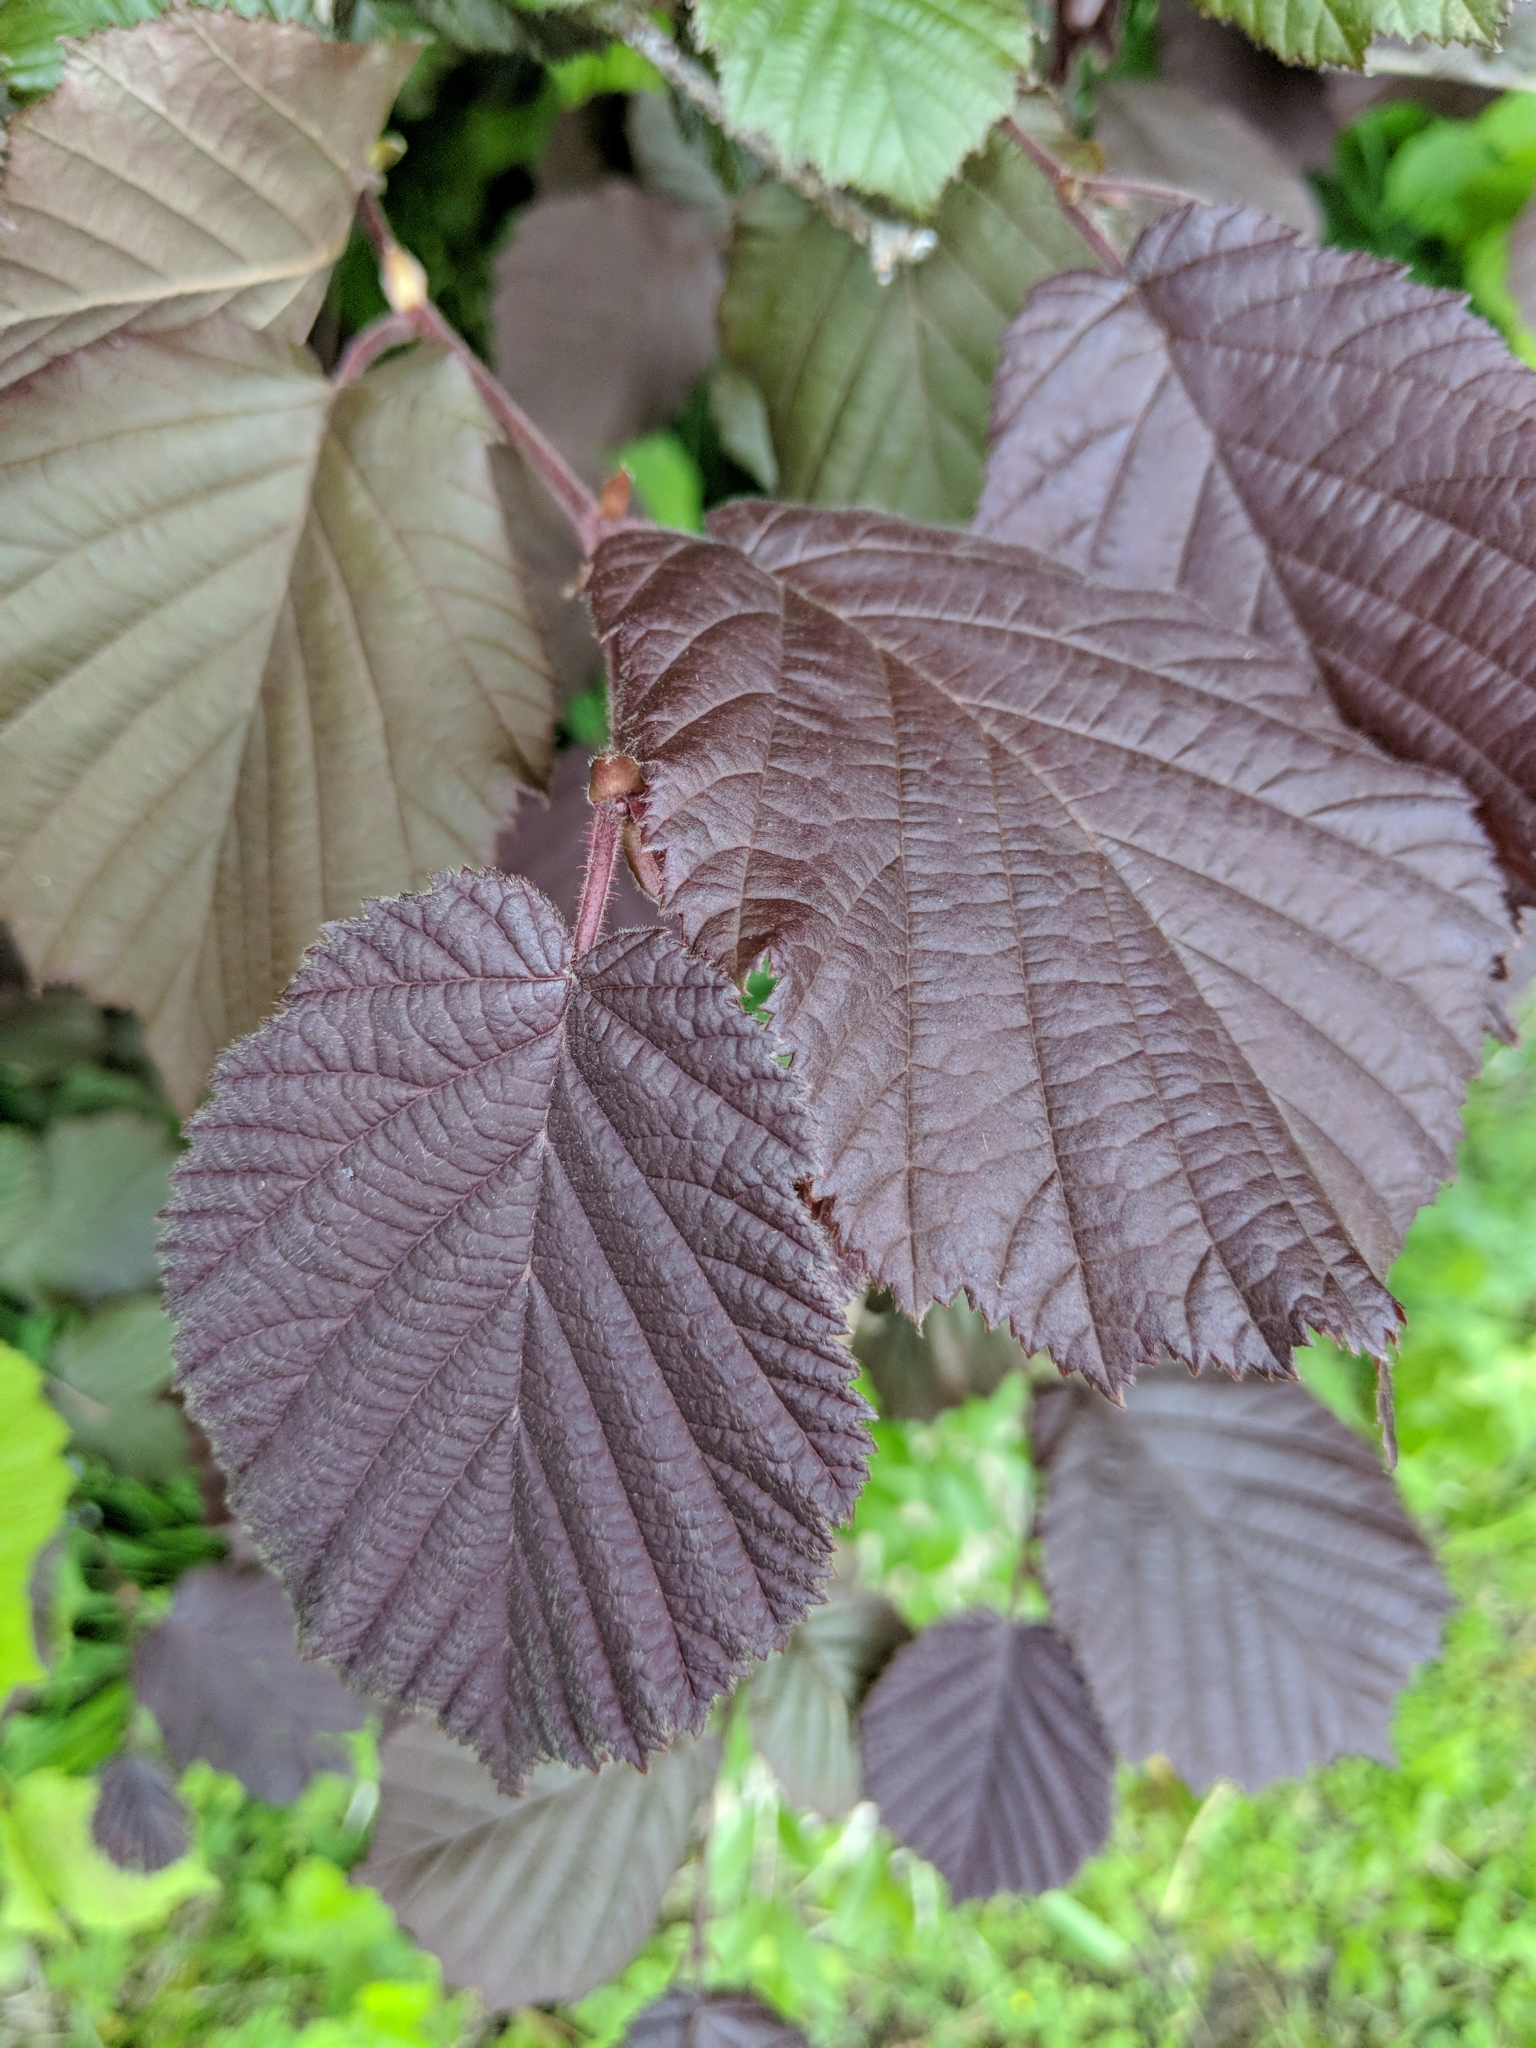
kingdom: Plantae
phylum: Tracheophyta
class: Magnoliopsida
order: Fagales
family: Betulaceae
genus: Corylus
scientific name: Corylus avellana
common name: European hazel
